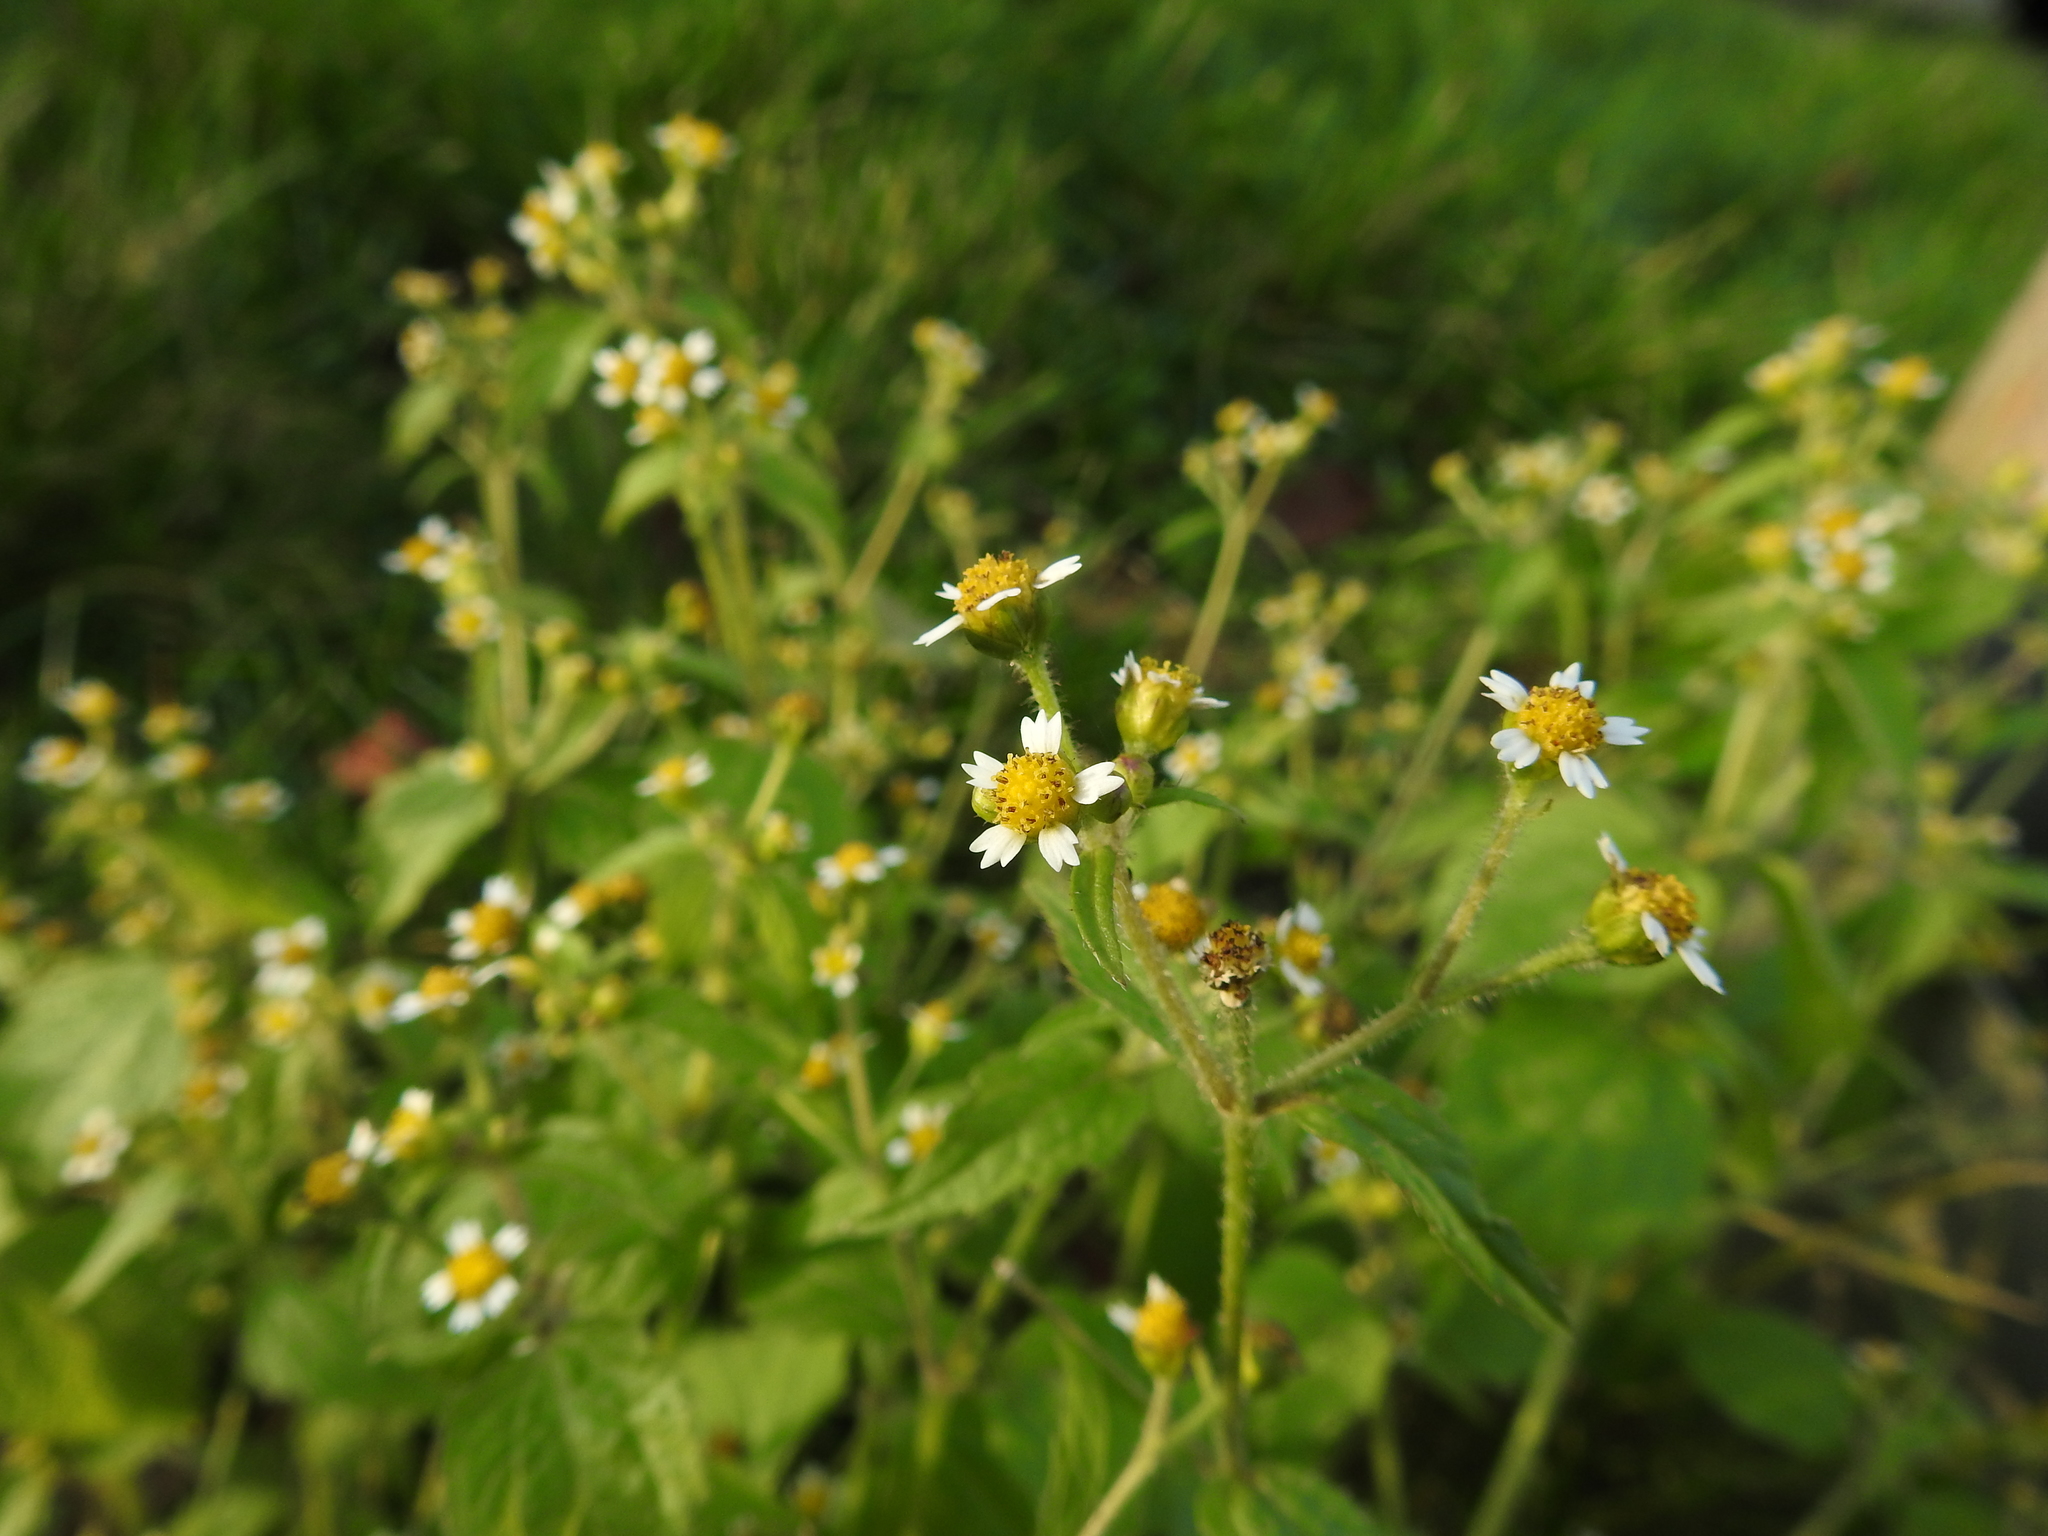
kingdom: Plantae
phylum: Tracheophyta
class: Magnoliopsida
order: Asterales
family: Asteraceae
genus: Galinsoga
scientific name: Galinsoga quadriradiata
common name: Shaggy soldier
